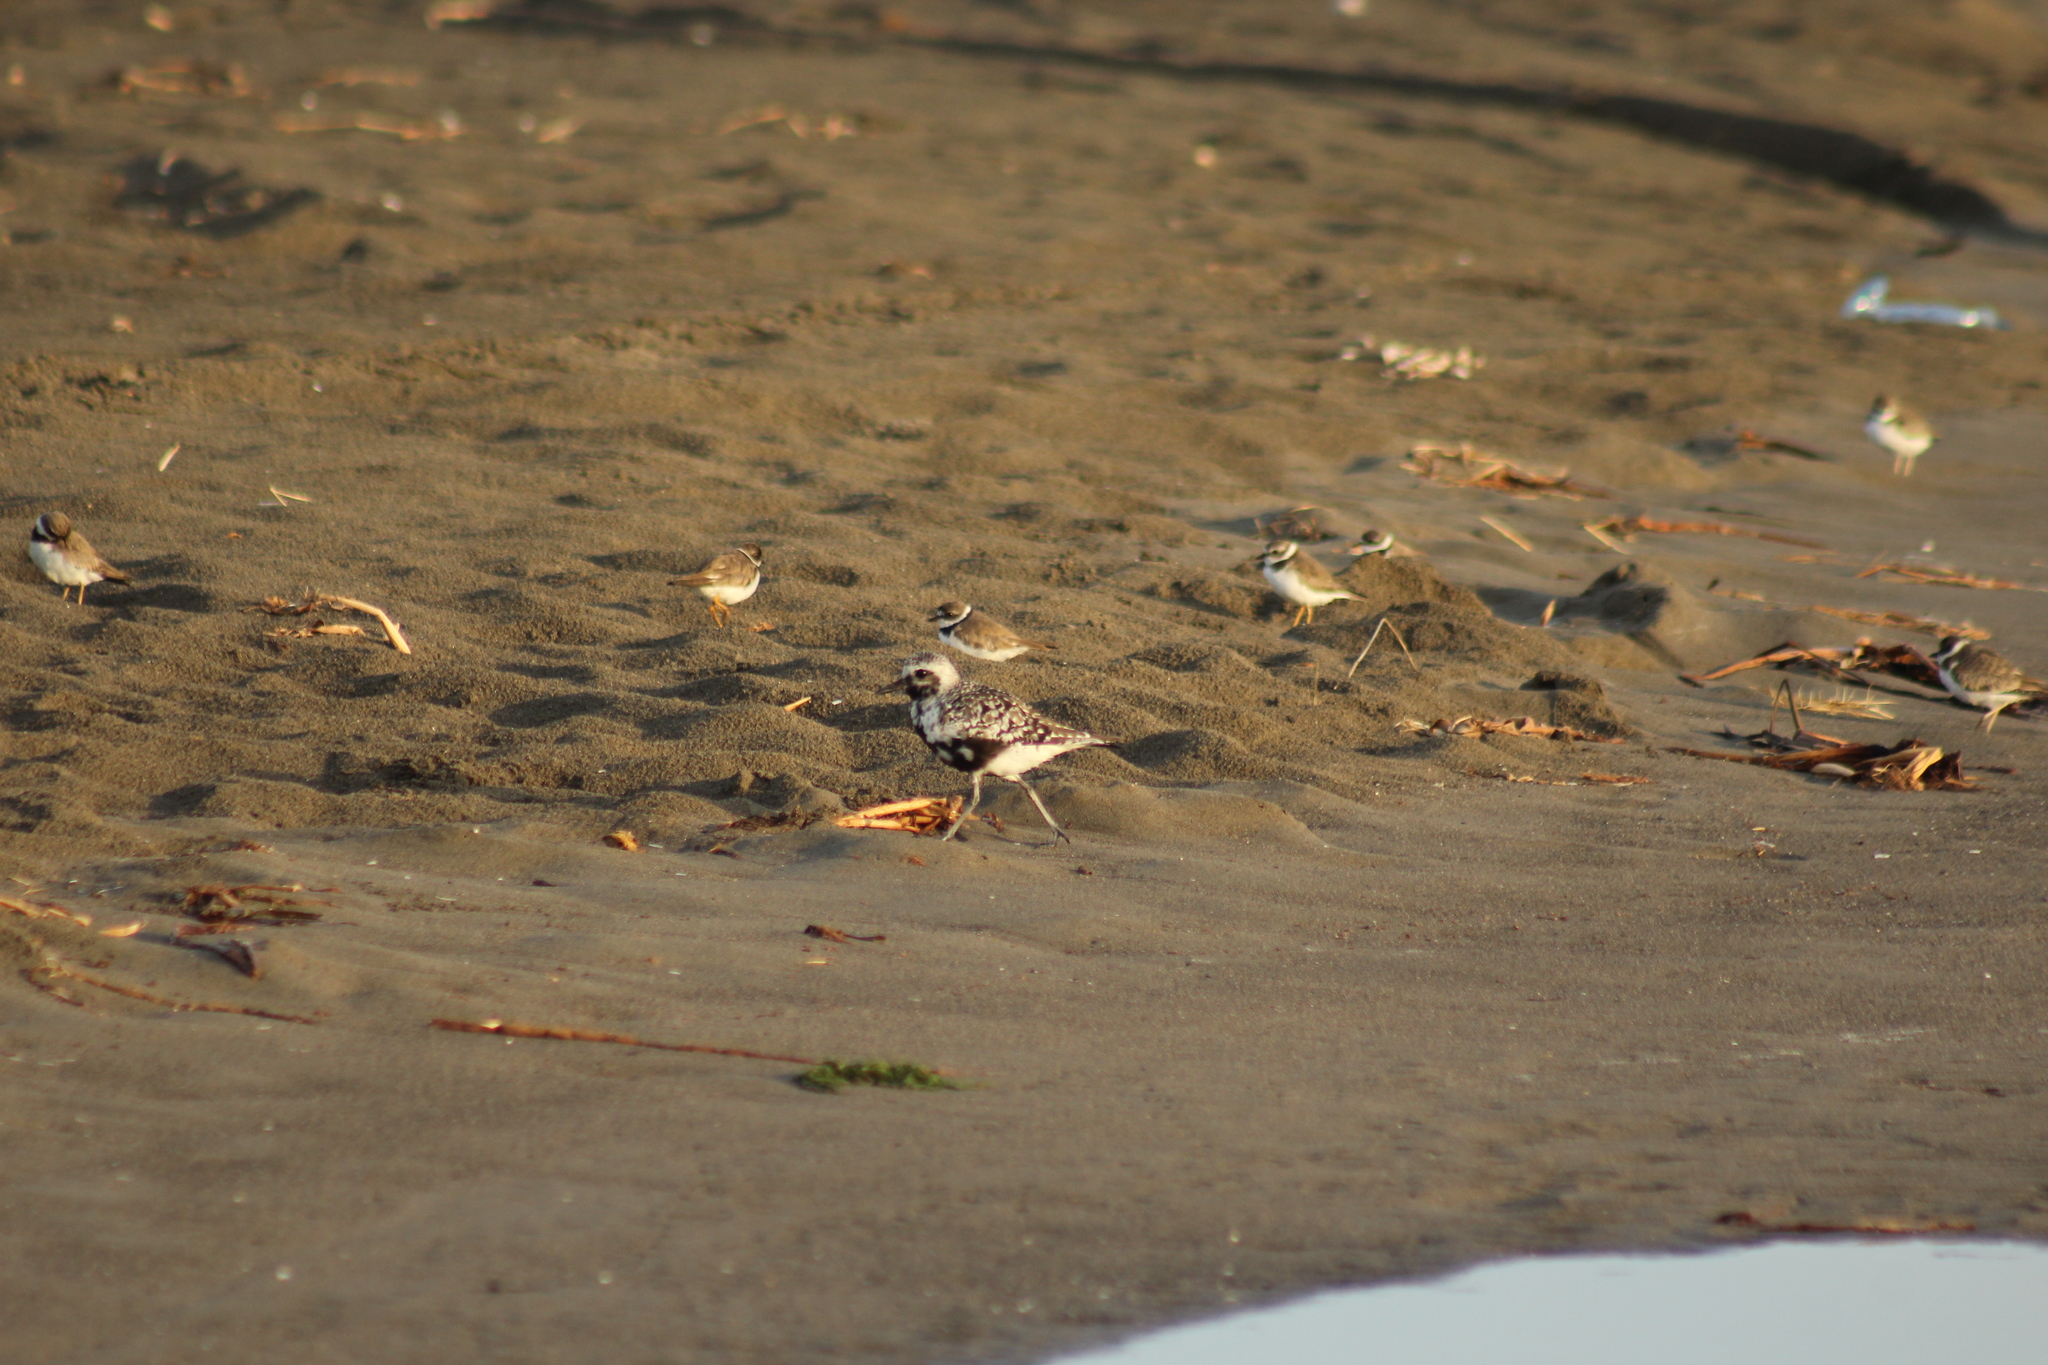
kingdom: Animalia
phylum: Chordata
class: Aves
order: Charadriiformes
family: Charadriidae
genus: Pluvialis
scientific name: Pluvialis squatarola
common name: Grey plover
